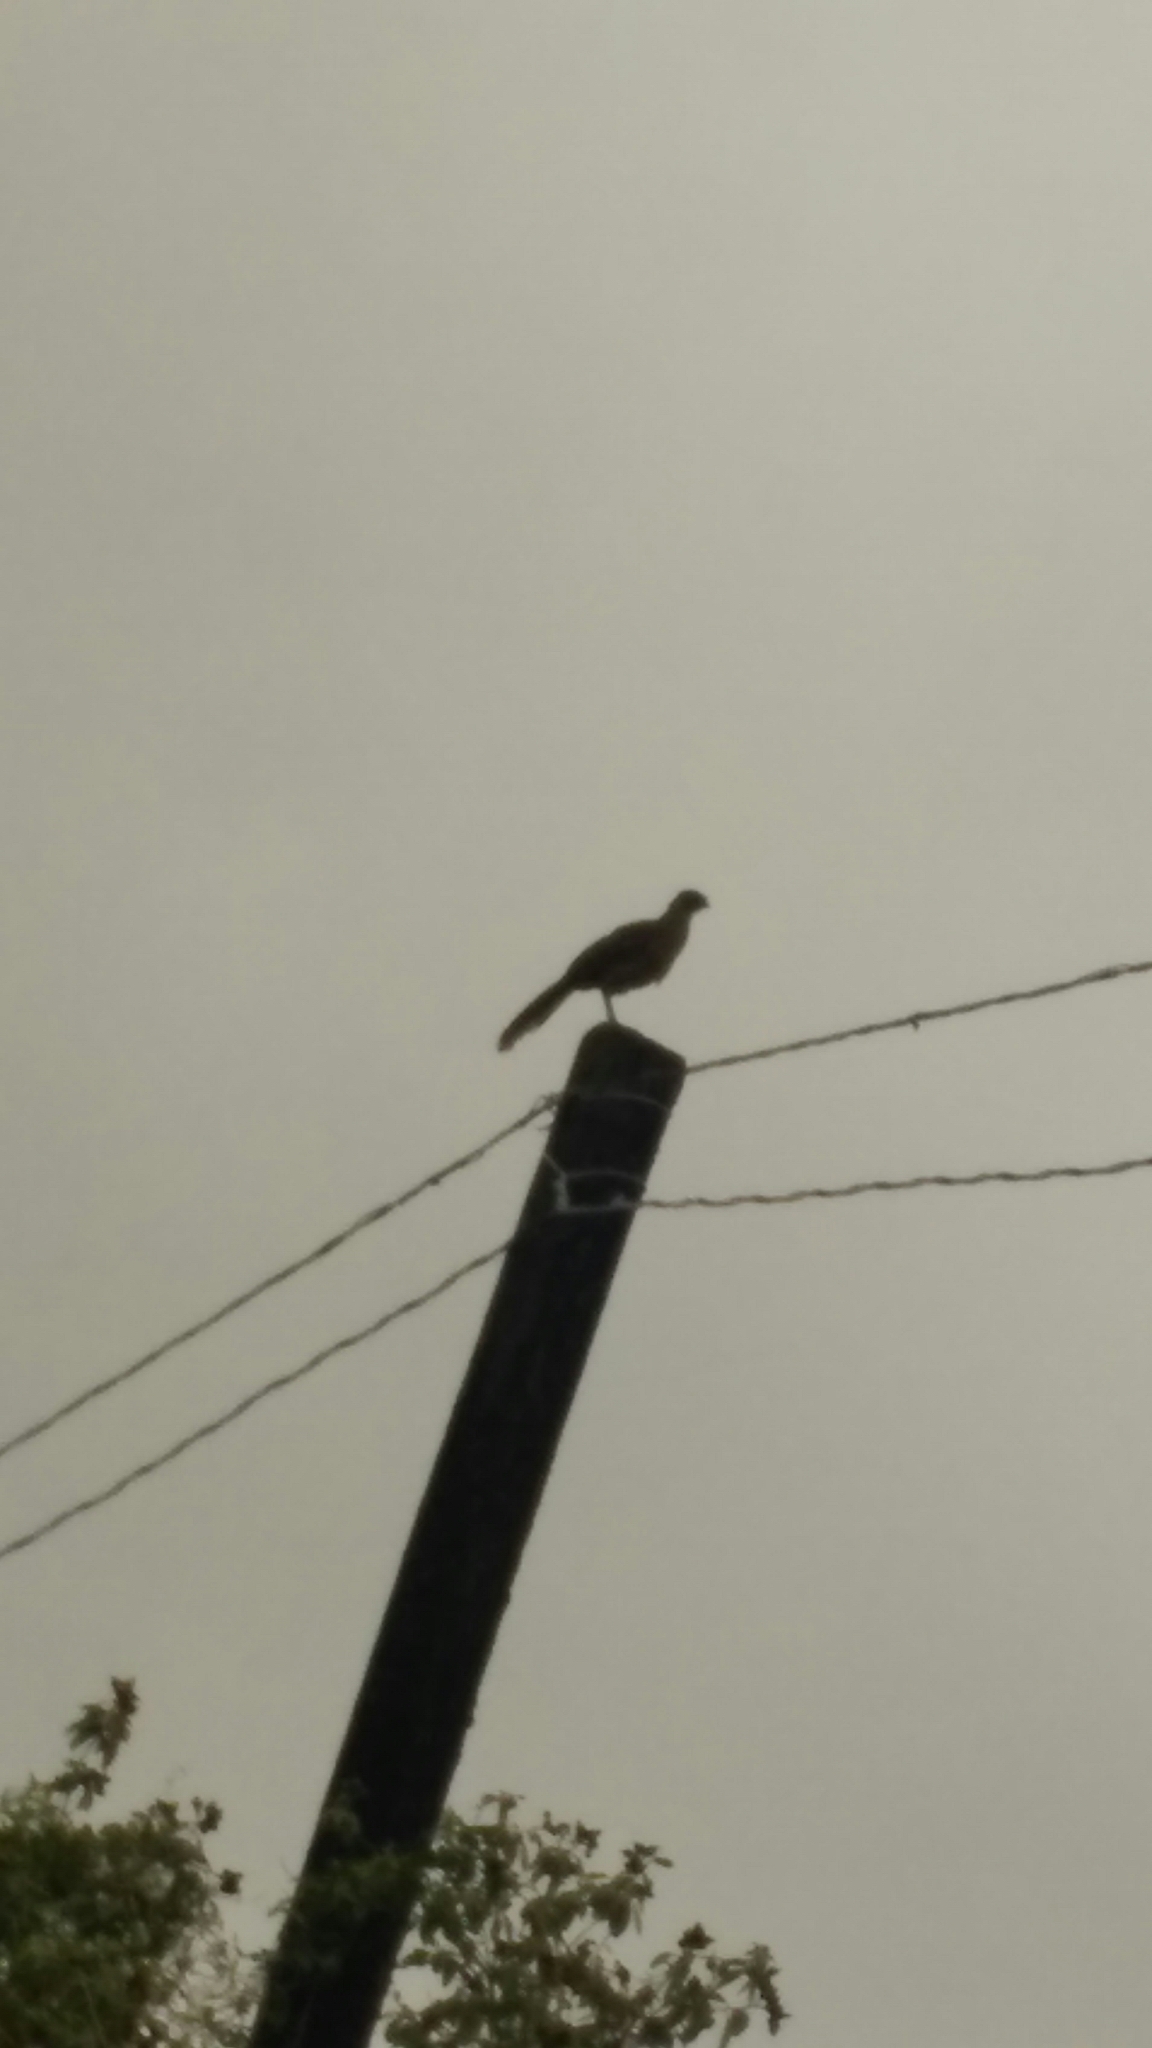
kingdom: Animalia
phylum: Chordata
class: Aves
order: Galliformes
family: Cracidae
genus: Ortalis
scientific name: Ortalis vetula
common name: Plain chachalaca
